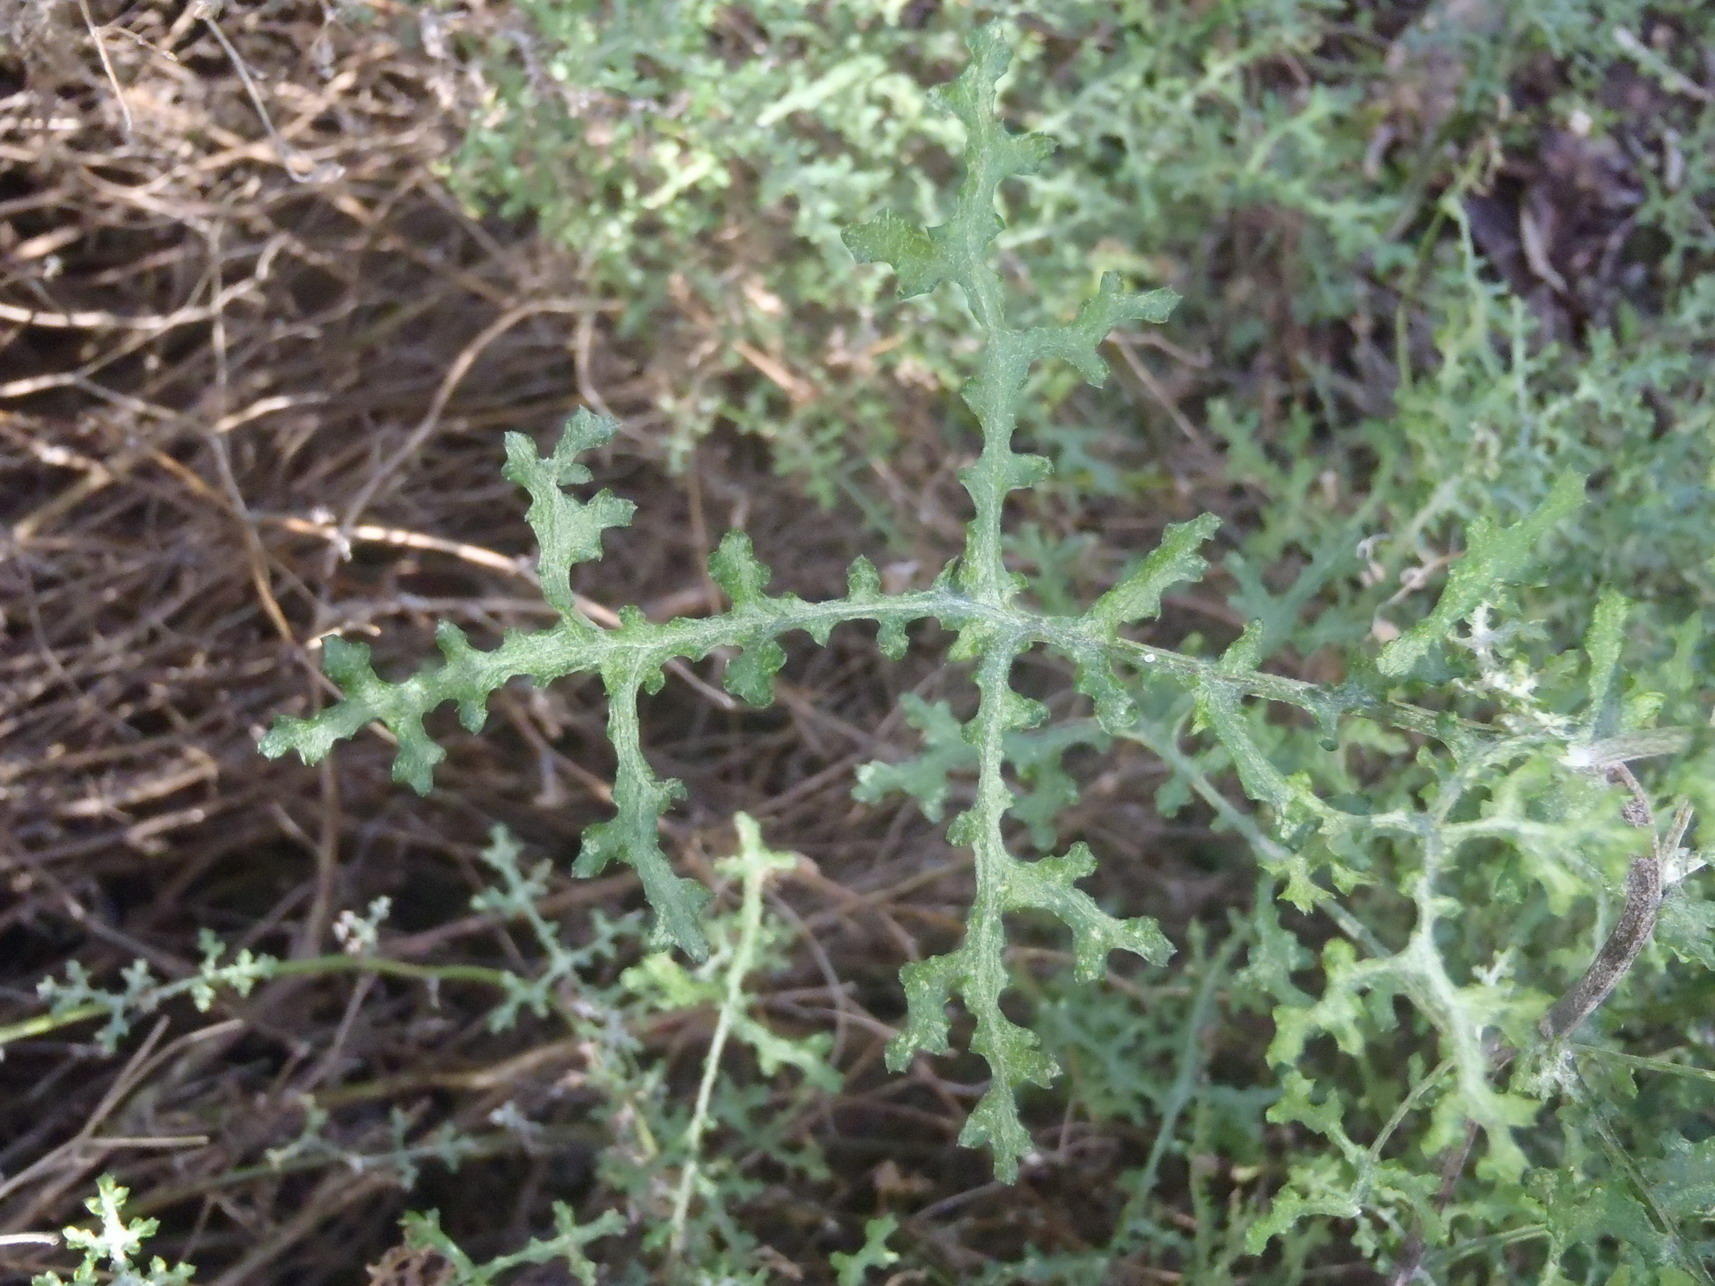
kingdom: Plantae
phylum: Tracheophyta
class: Magnoliopsida
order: Asterales
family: Asteraceae
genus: Senecio
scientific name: Senecio erysimoides
